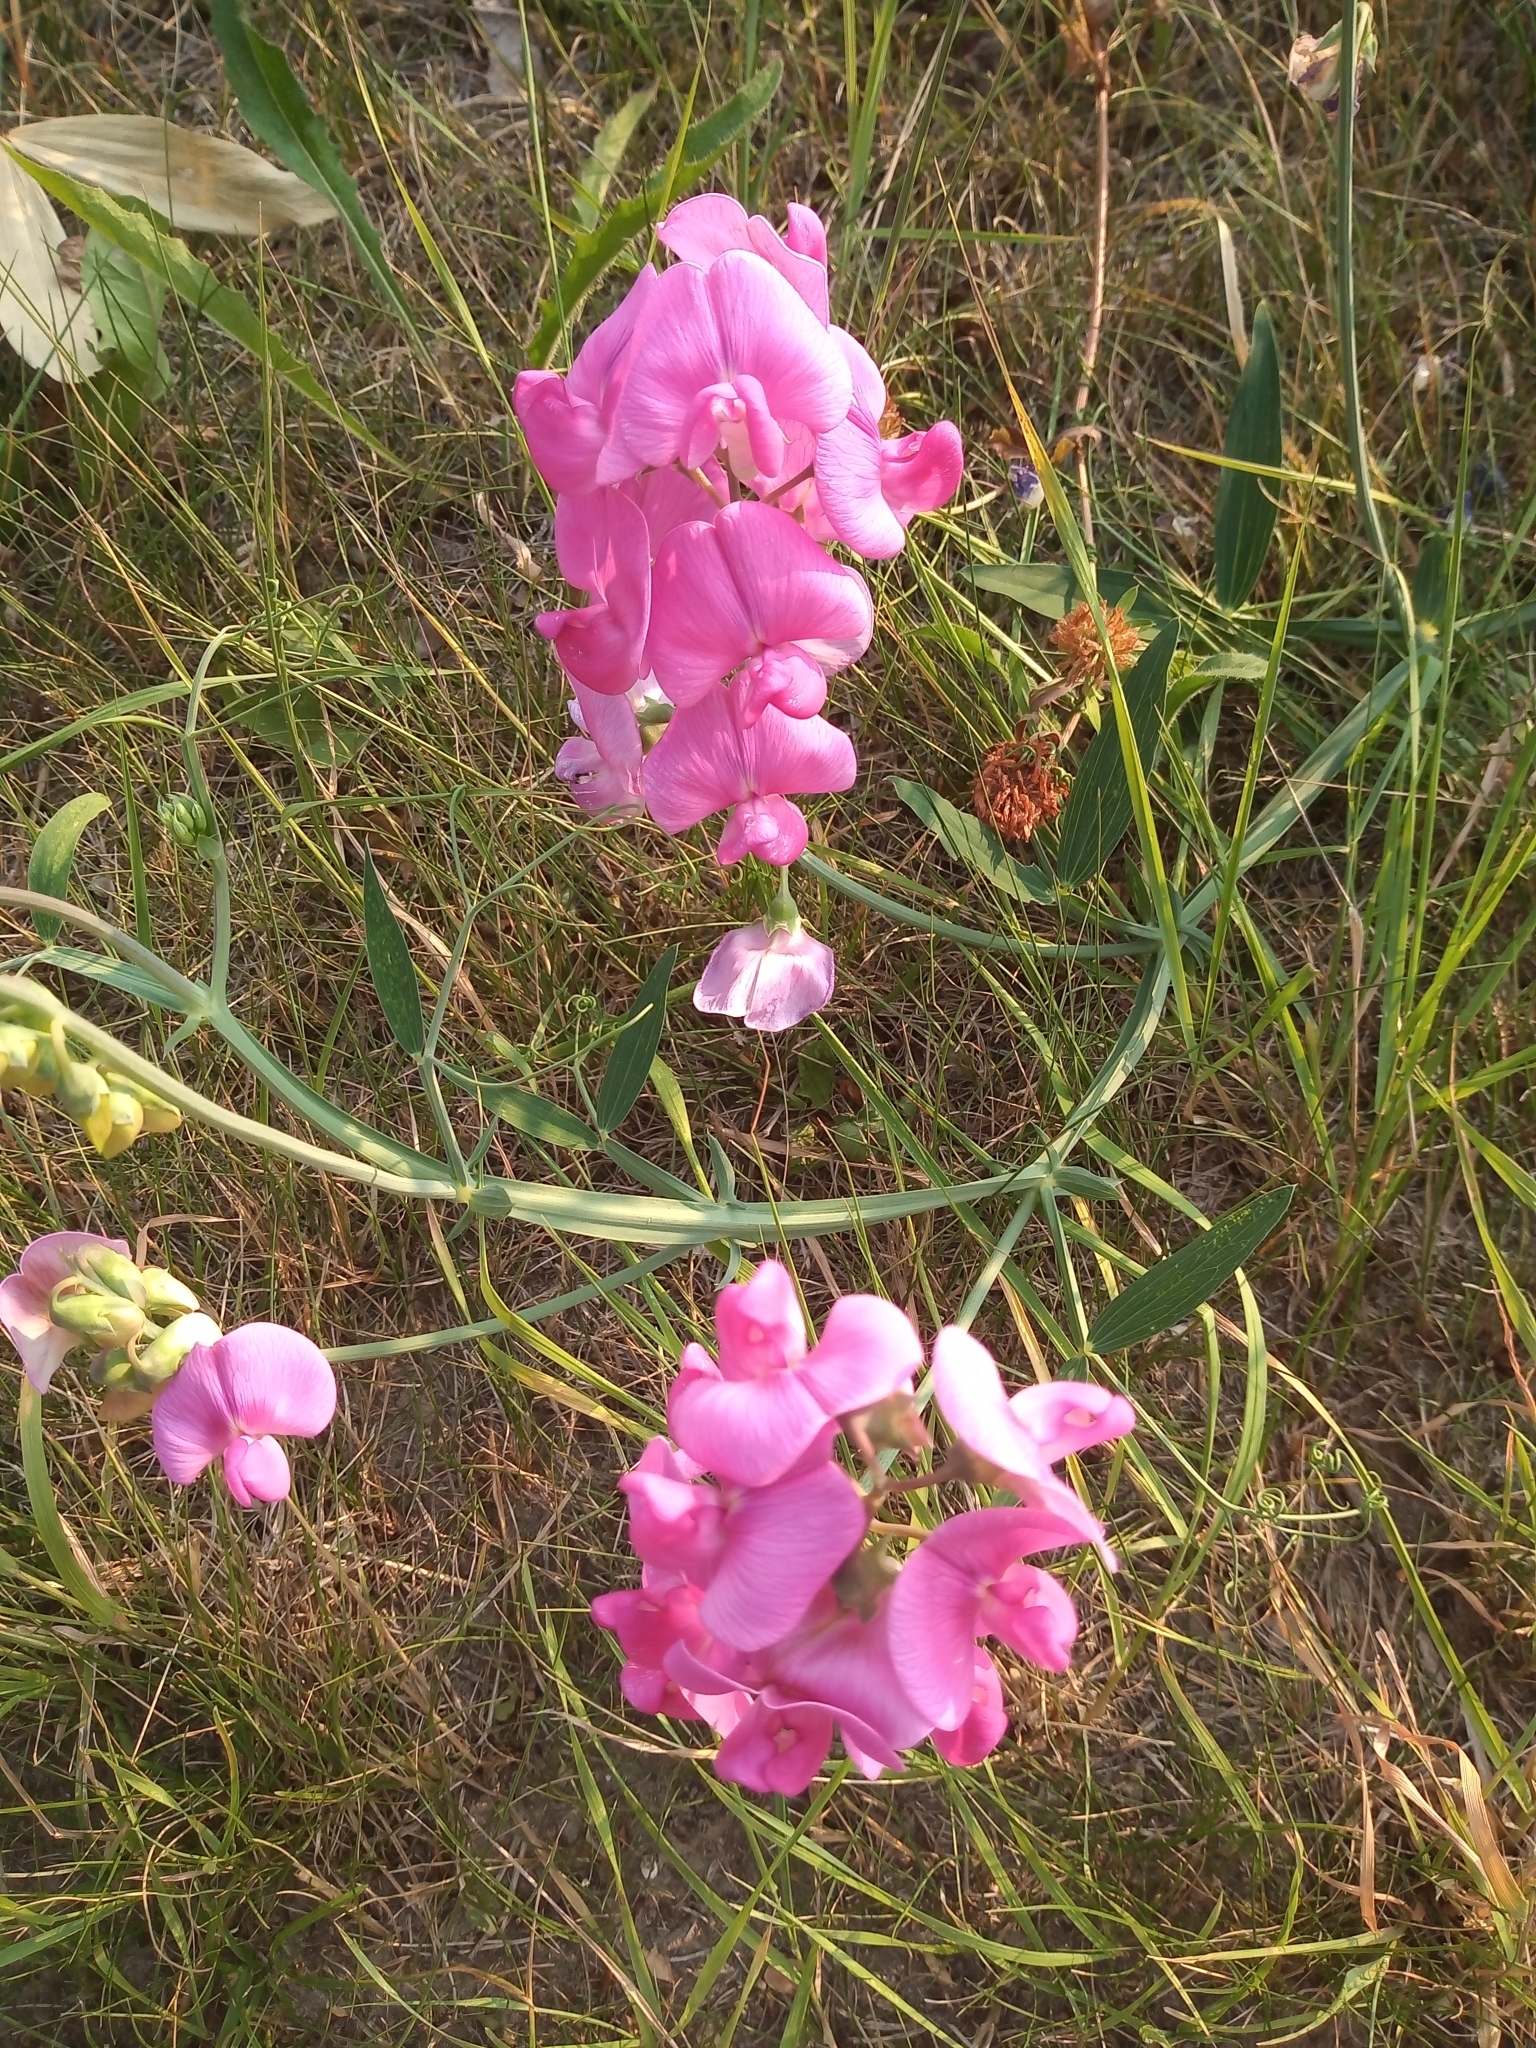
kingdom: Plantae
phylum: Tracheophyta
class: Magnoliopsida
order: Fabales
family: Fabaceae
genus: Lathyrus
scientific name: Lathyrus latifolius
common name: Perennial pea
